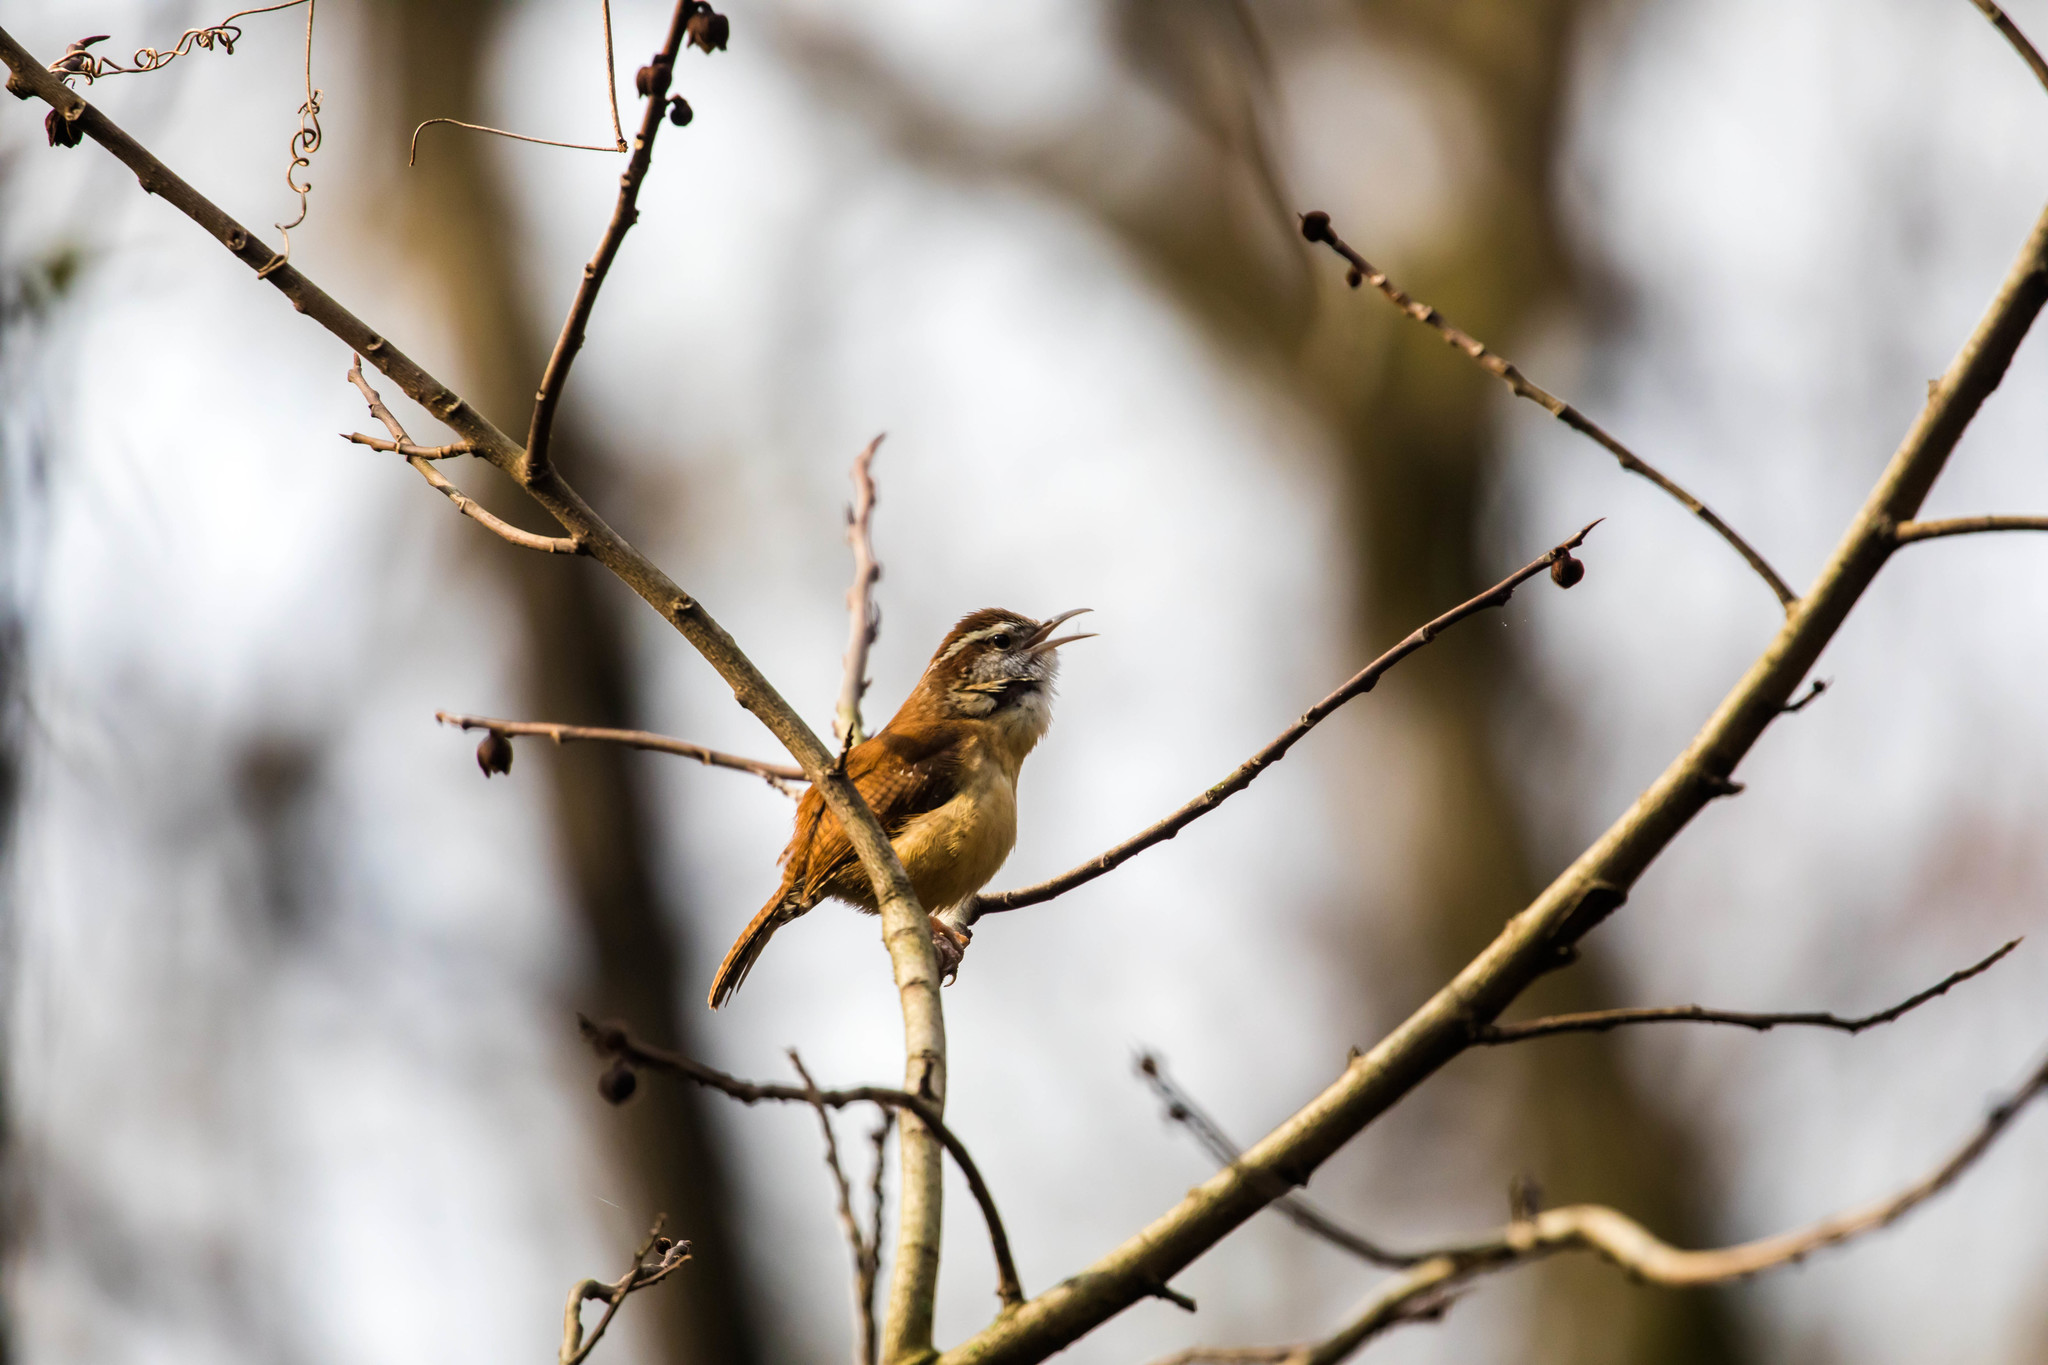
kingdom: Animalia
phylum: Chordata
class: Aves
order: Passeriformes
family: Troglodytidae
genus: Thryothorus
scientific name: Thryothorus ludovicianus
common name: Carolina wren
